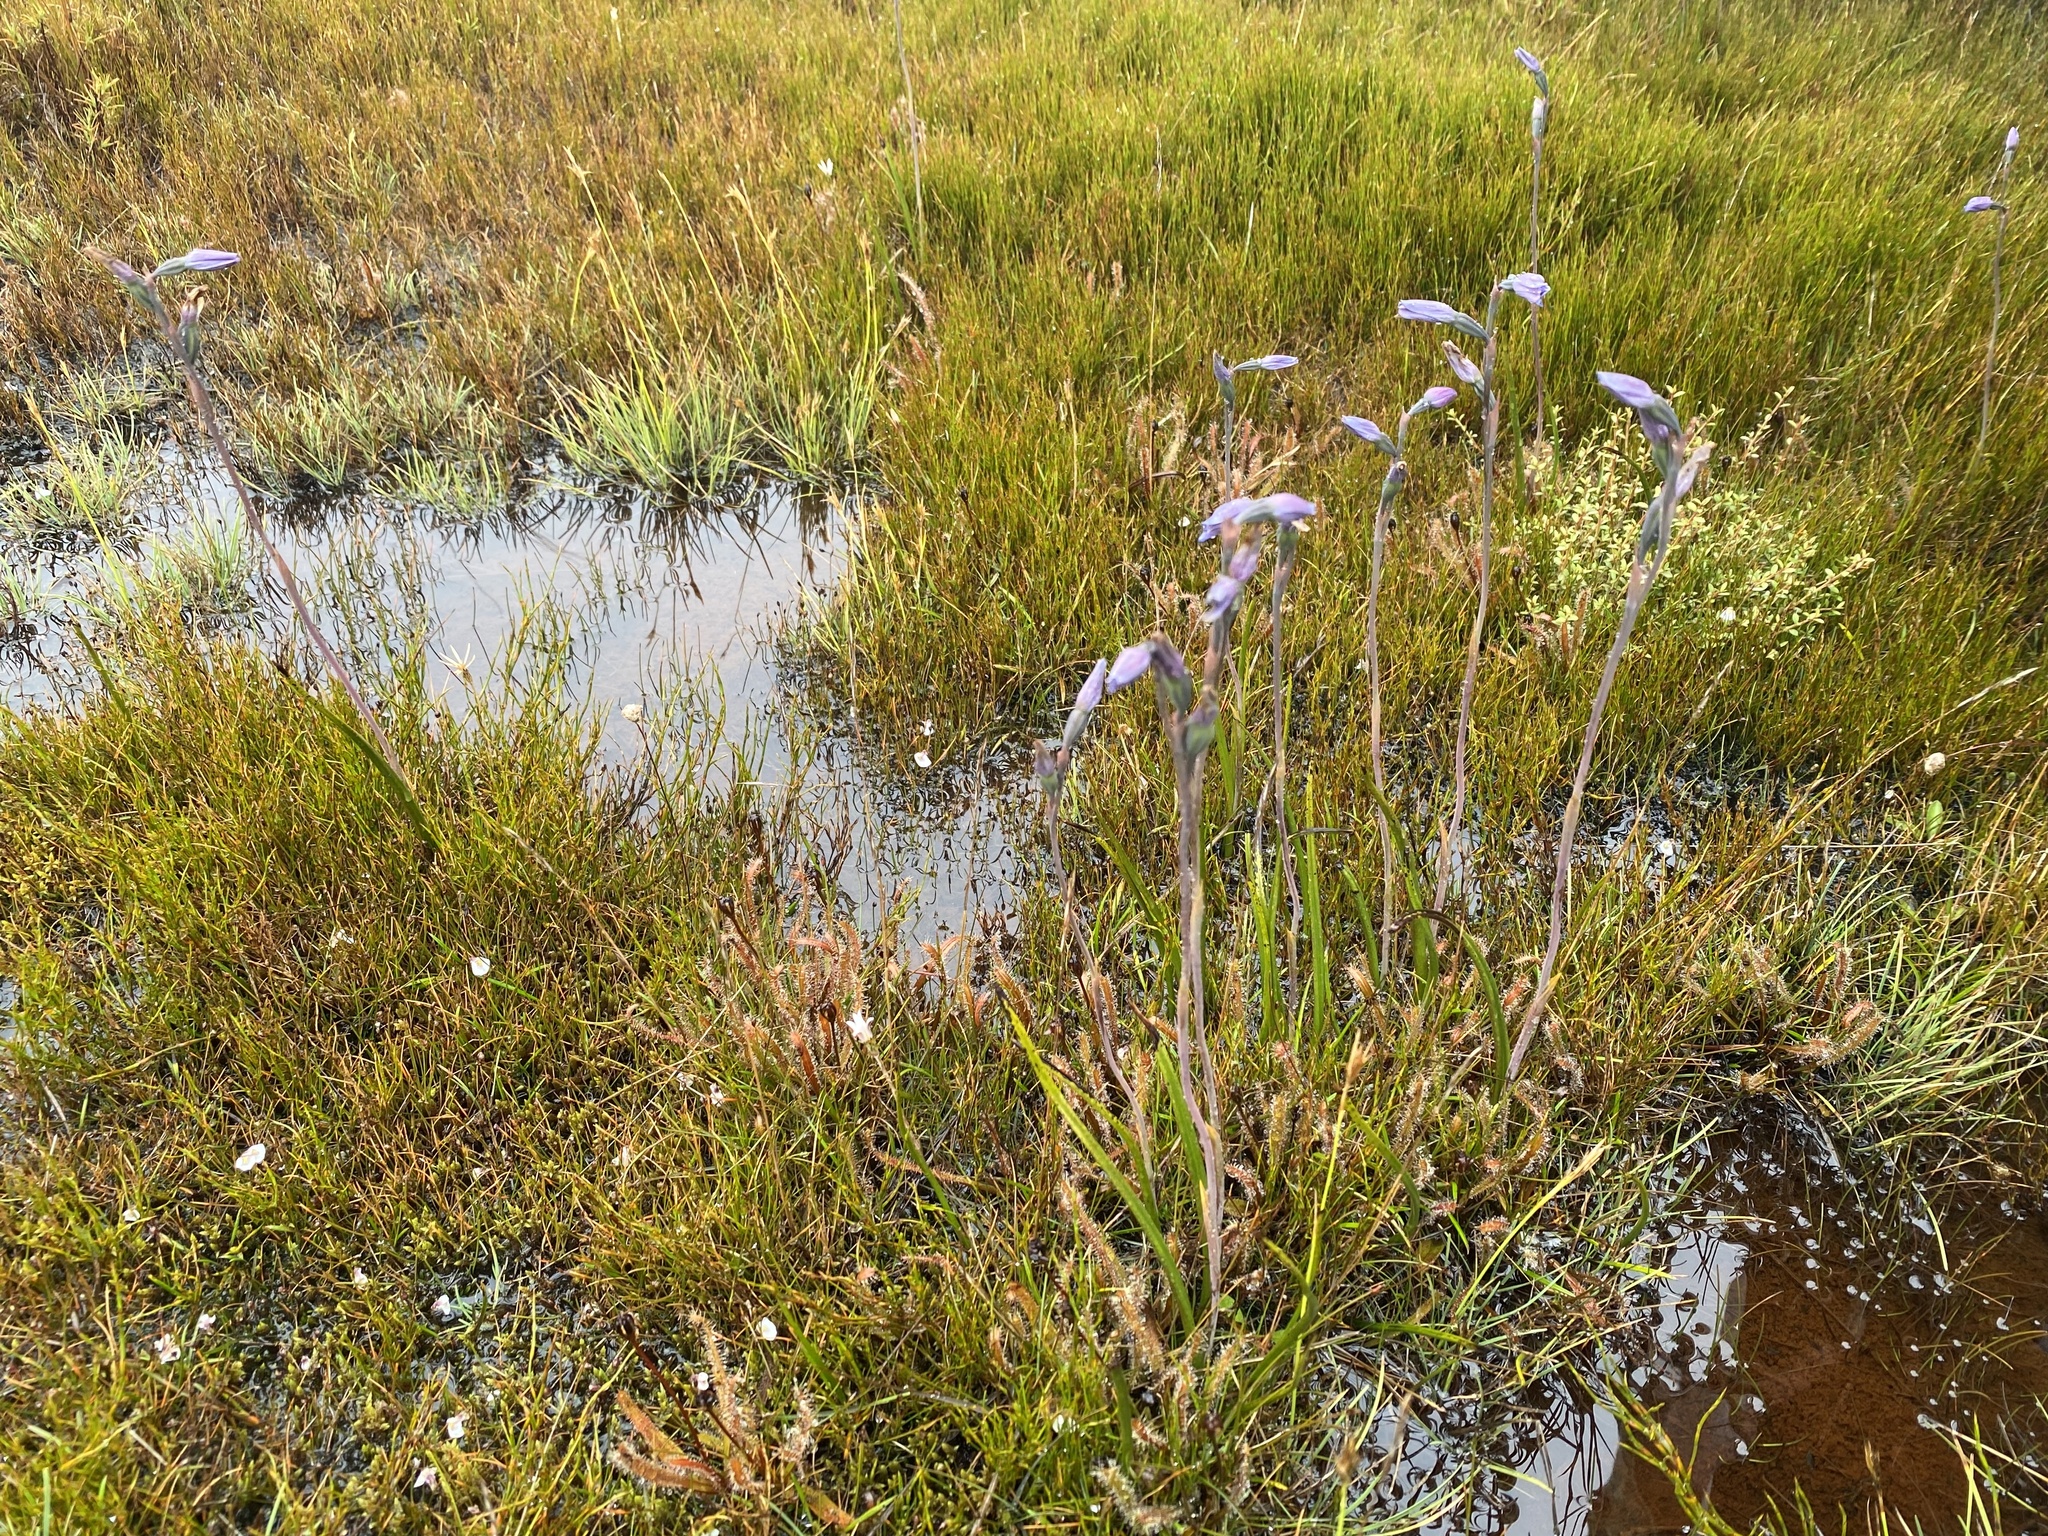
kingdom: Plantae
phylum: Tracheophyta
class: Liliopsida
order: Asparagales
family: Orchidaceae
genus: Thelymitra
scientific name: Thelymitra cyanea
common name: Blue sun-orchid
